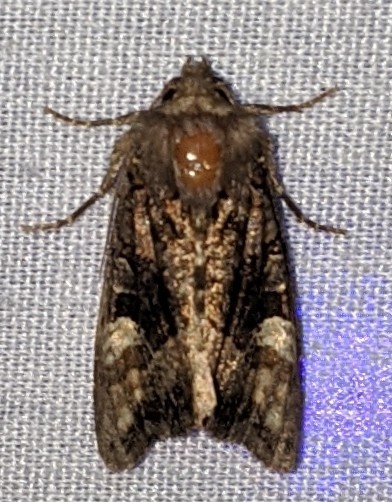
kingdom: Animalia
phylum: Arthropoda
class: Insecta
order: Lepidoptera
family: Noctuidae
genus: Euplexia
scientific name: Euplexia benesimilis
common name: American angle shades
